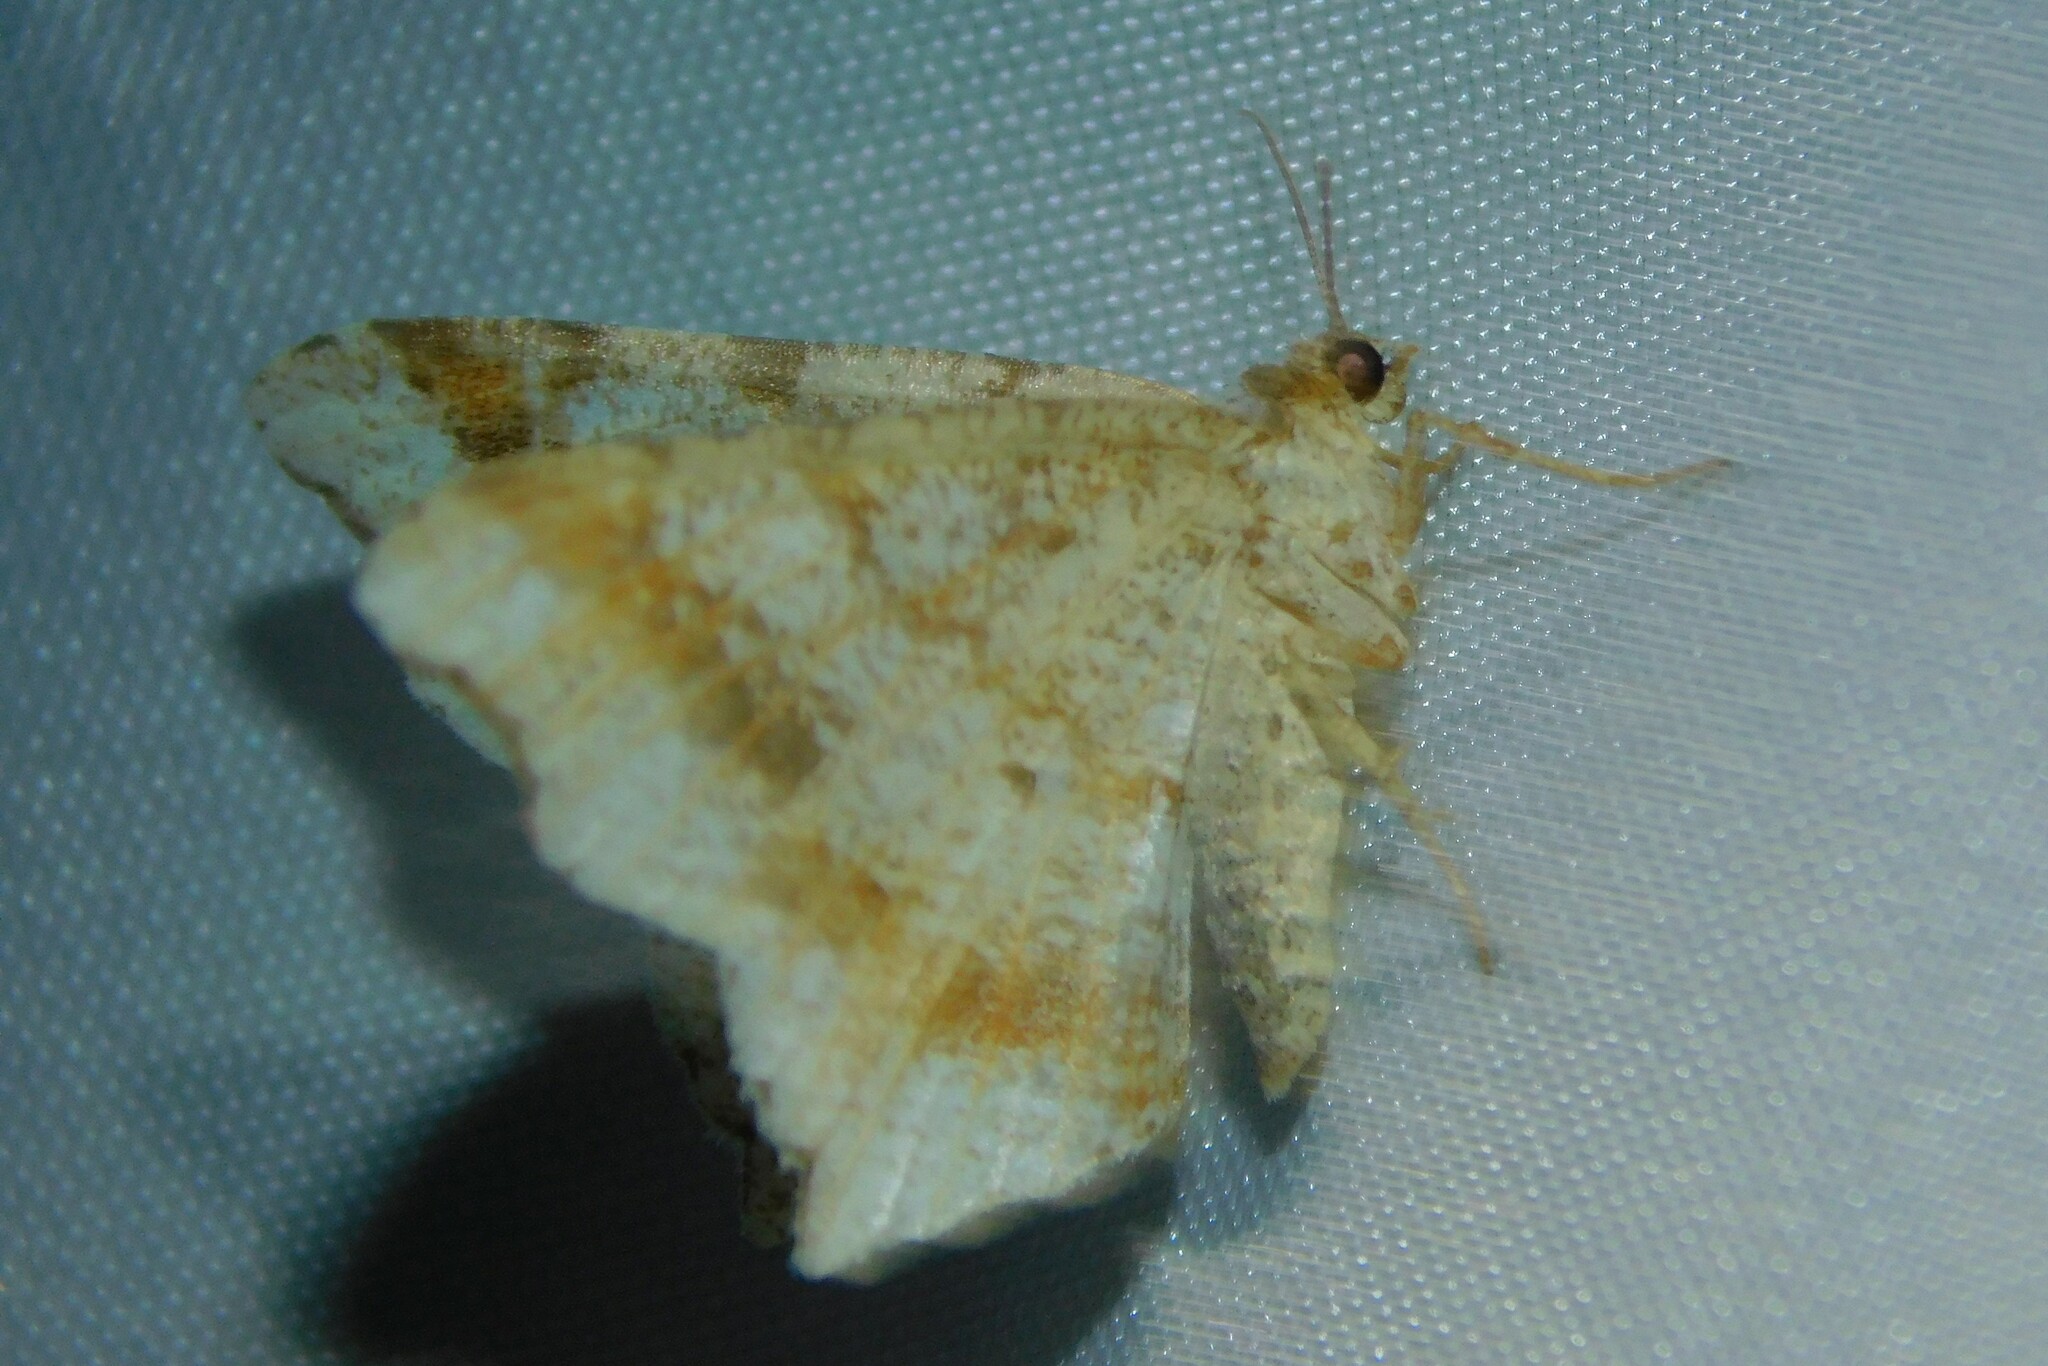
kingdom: Animalia
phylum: Arthropoda
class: Insecta
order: Lepidoptera
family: Geometridae
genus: Macaria
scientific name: Macaria alternata
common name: Sharp-angled peacock
